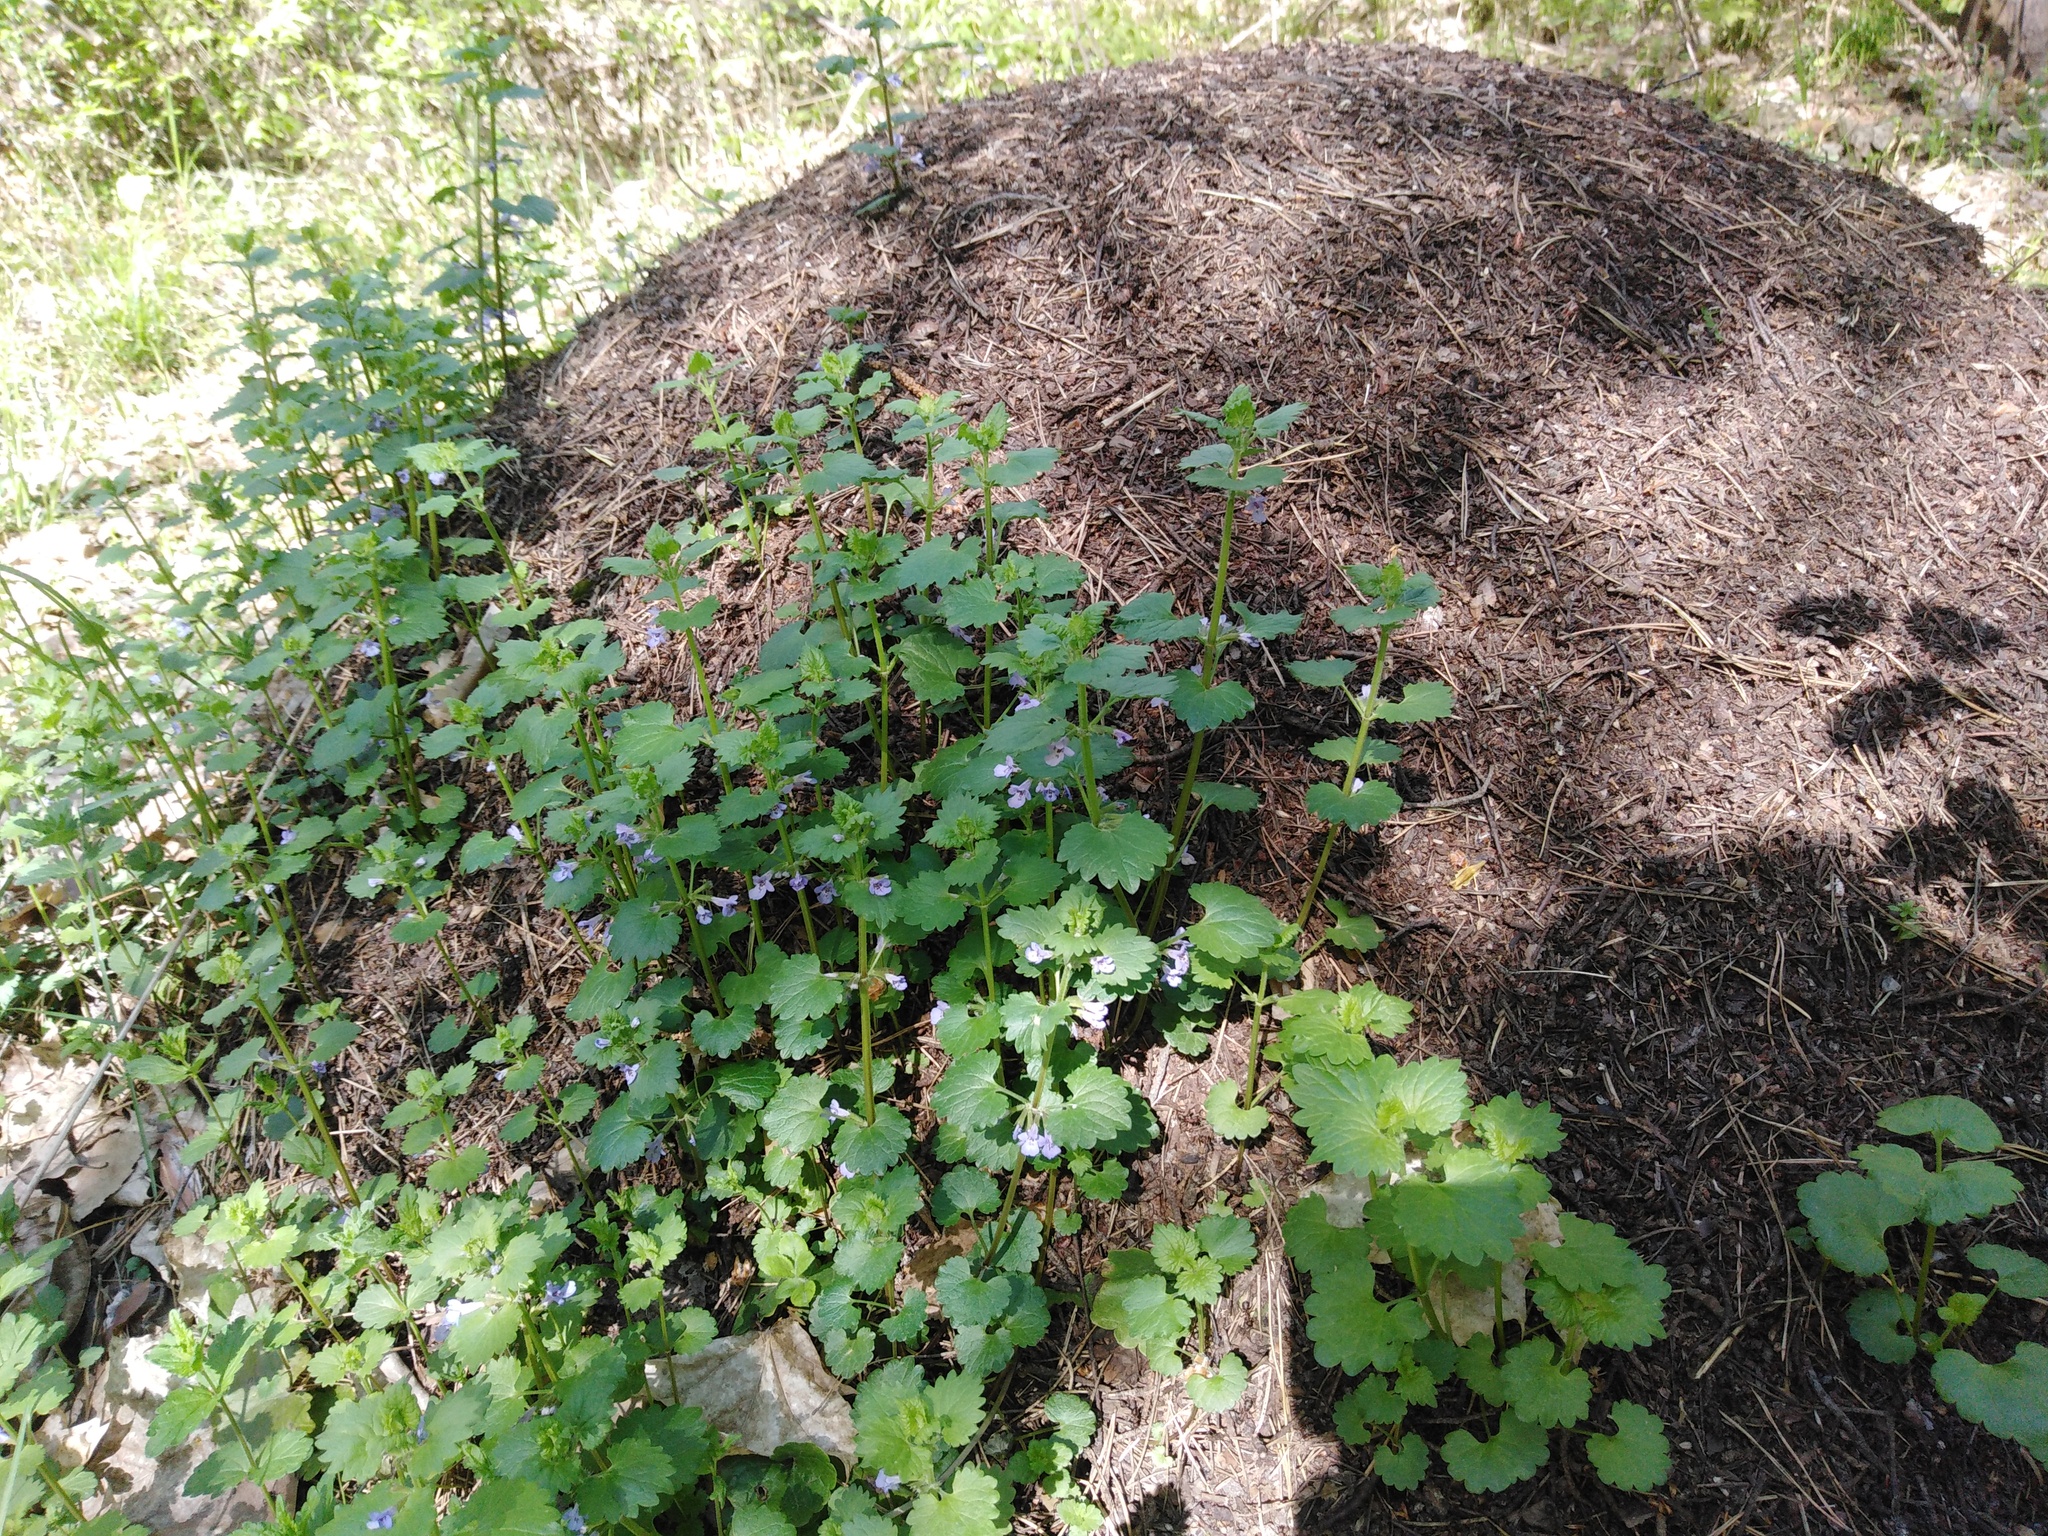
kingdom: Plantae
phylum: Tracheophyta
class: Magnoliopsida
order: Lamiales
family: Lamiaceae
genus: Glechoma
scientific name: Glechoma hederacea
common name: Ground ivy
